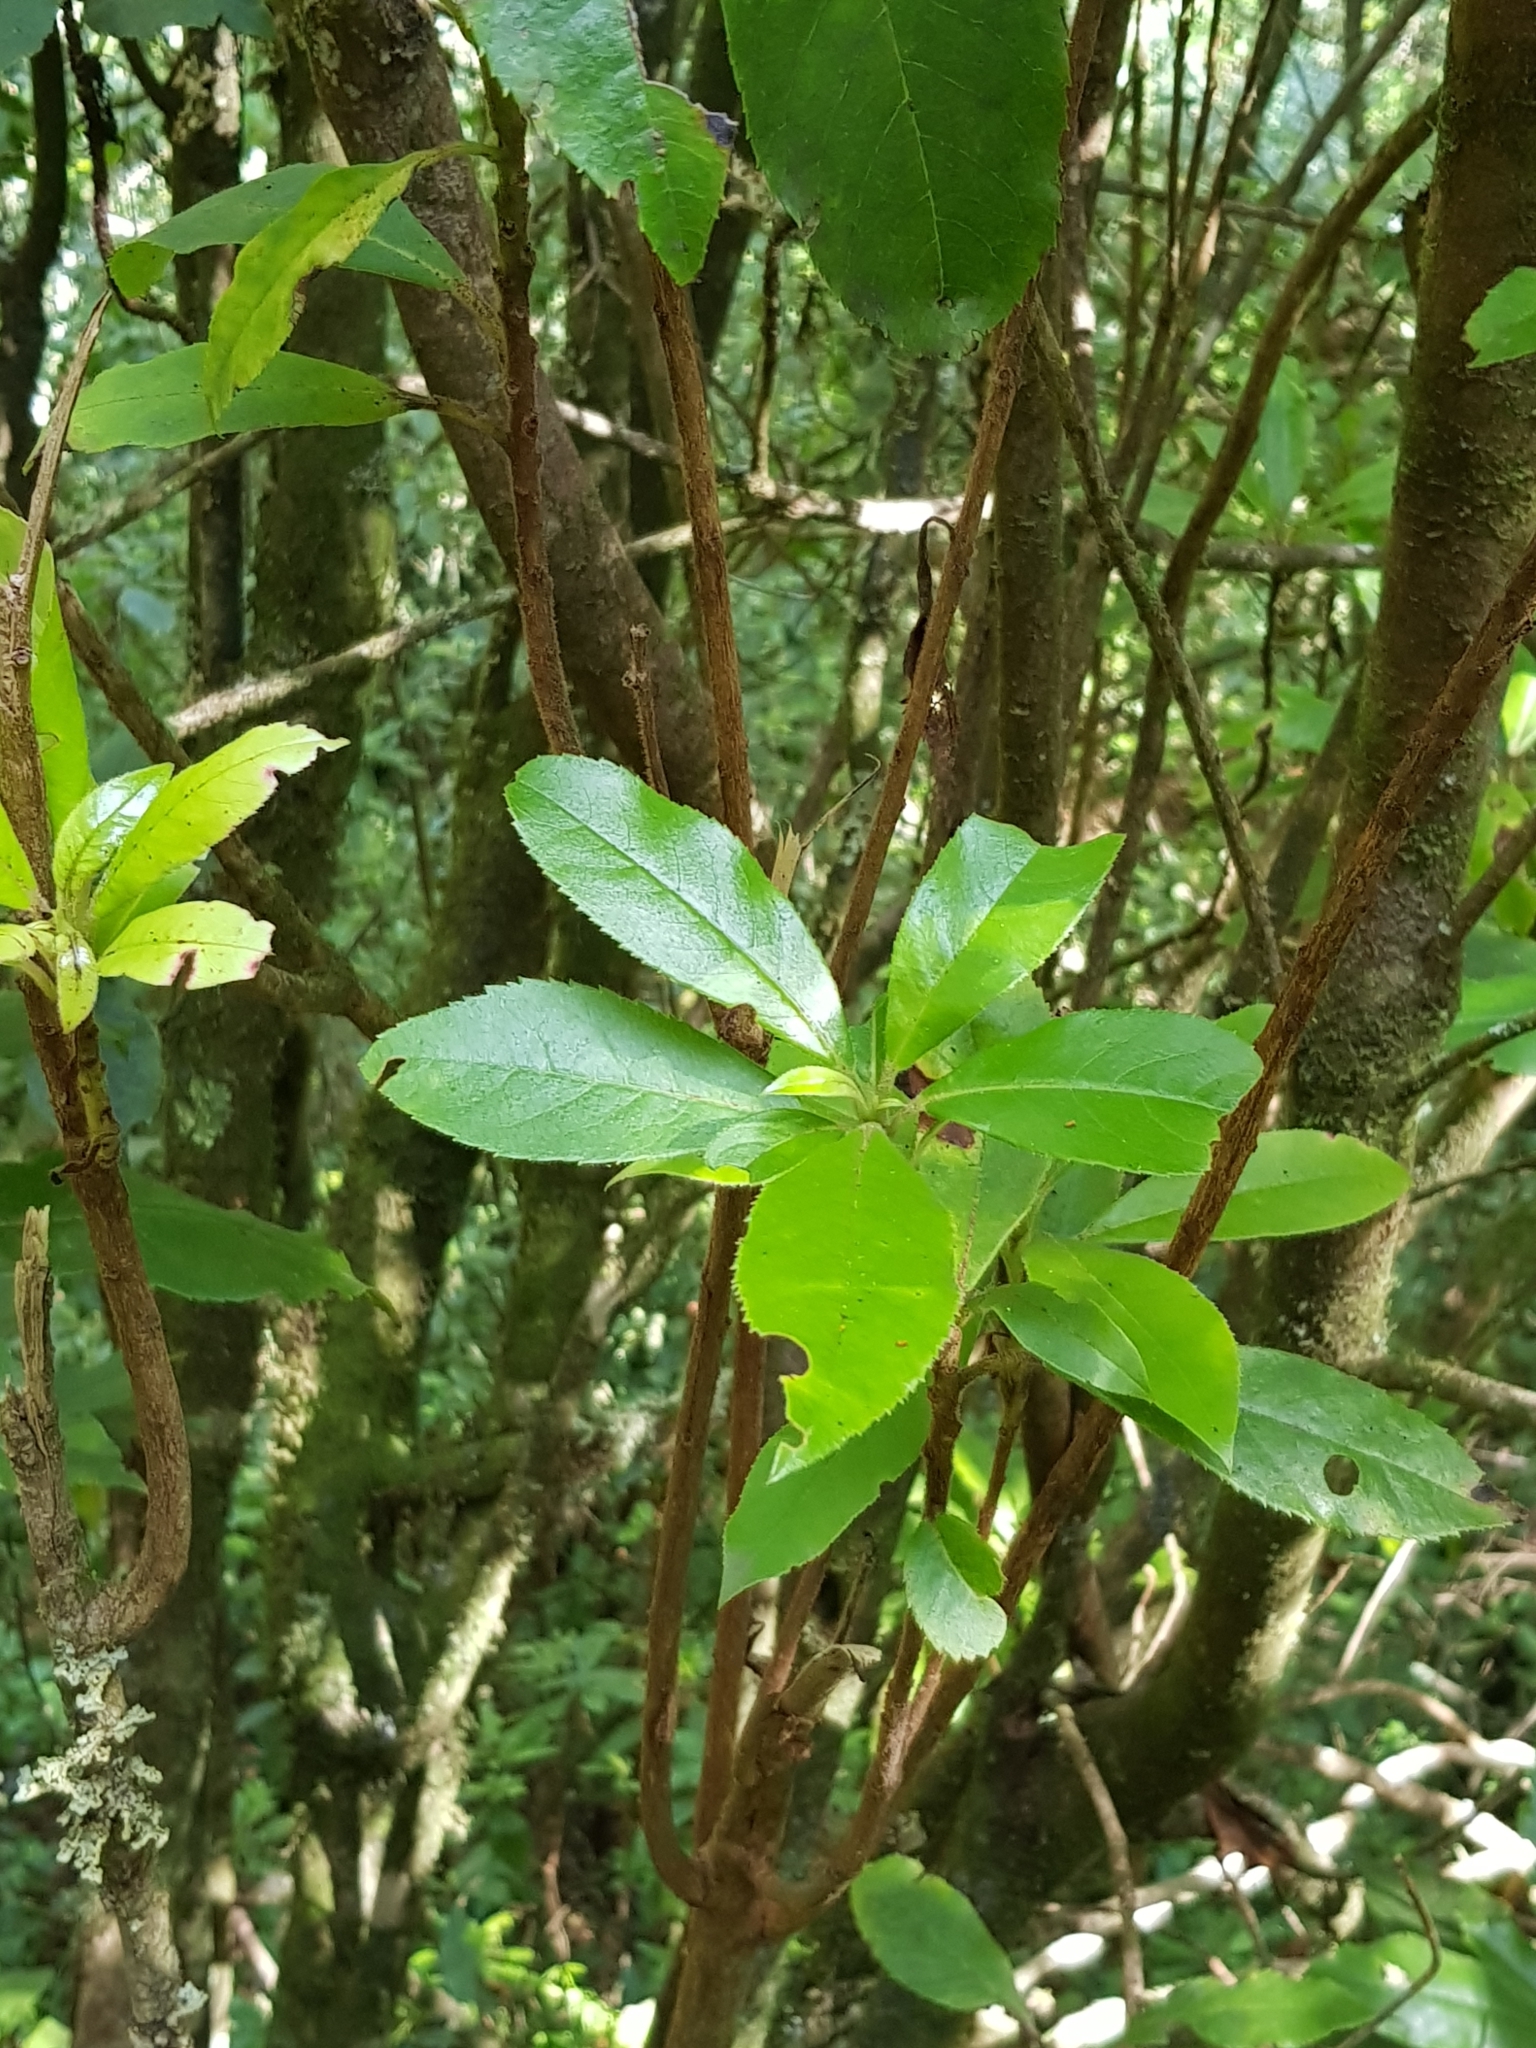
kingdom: Plantae
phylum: Tracheophyta
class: Magnoliopsida
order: Ericales
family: Clethraceae
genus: Clethra
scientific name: Clethra arborea
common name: Lily-of-the-valley-tree
